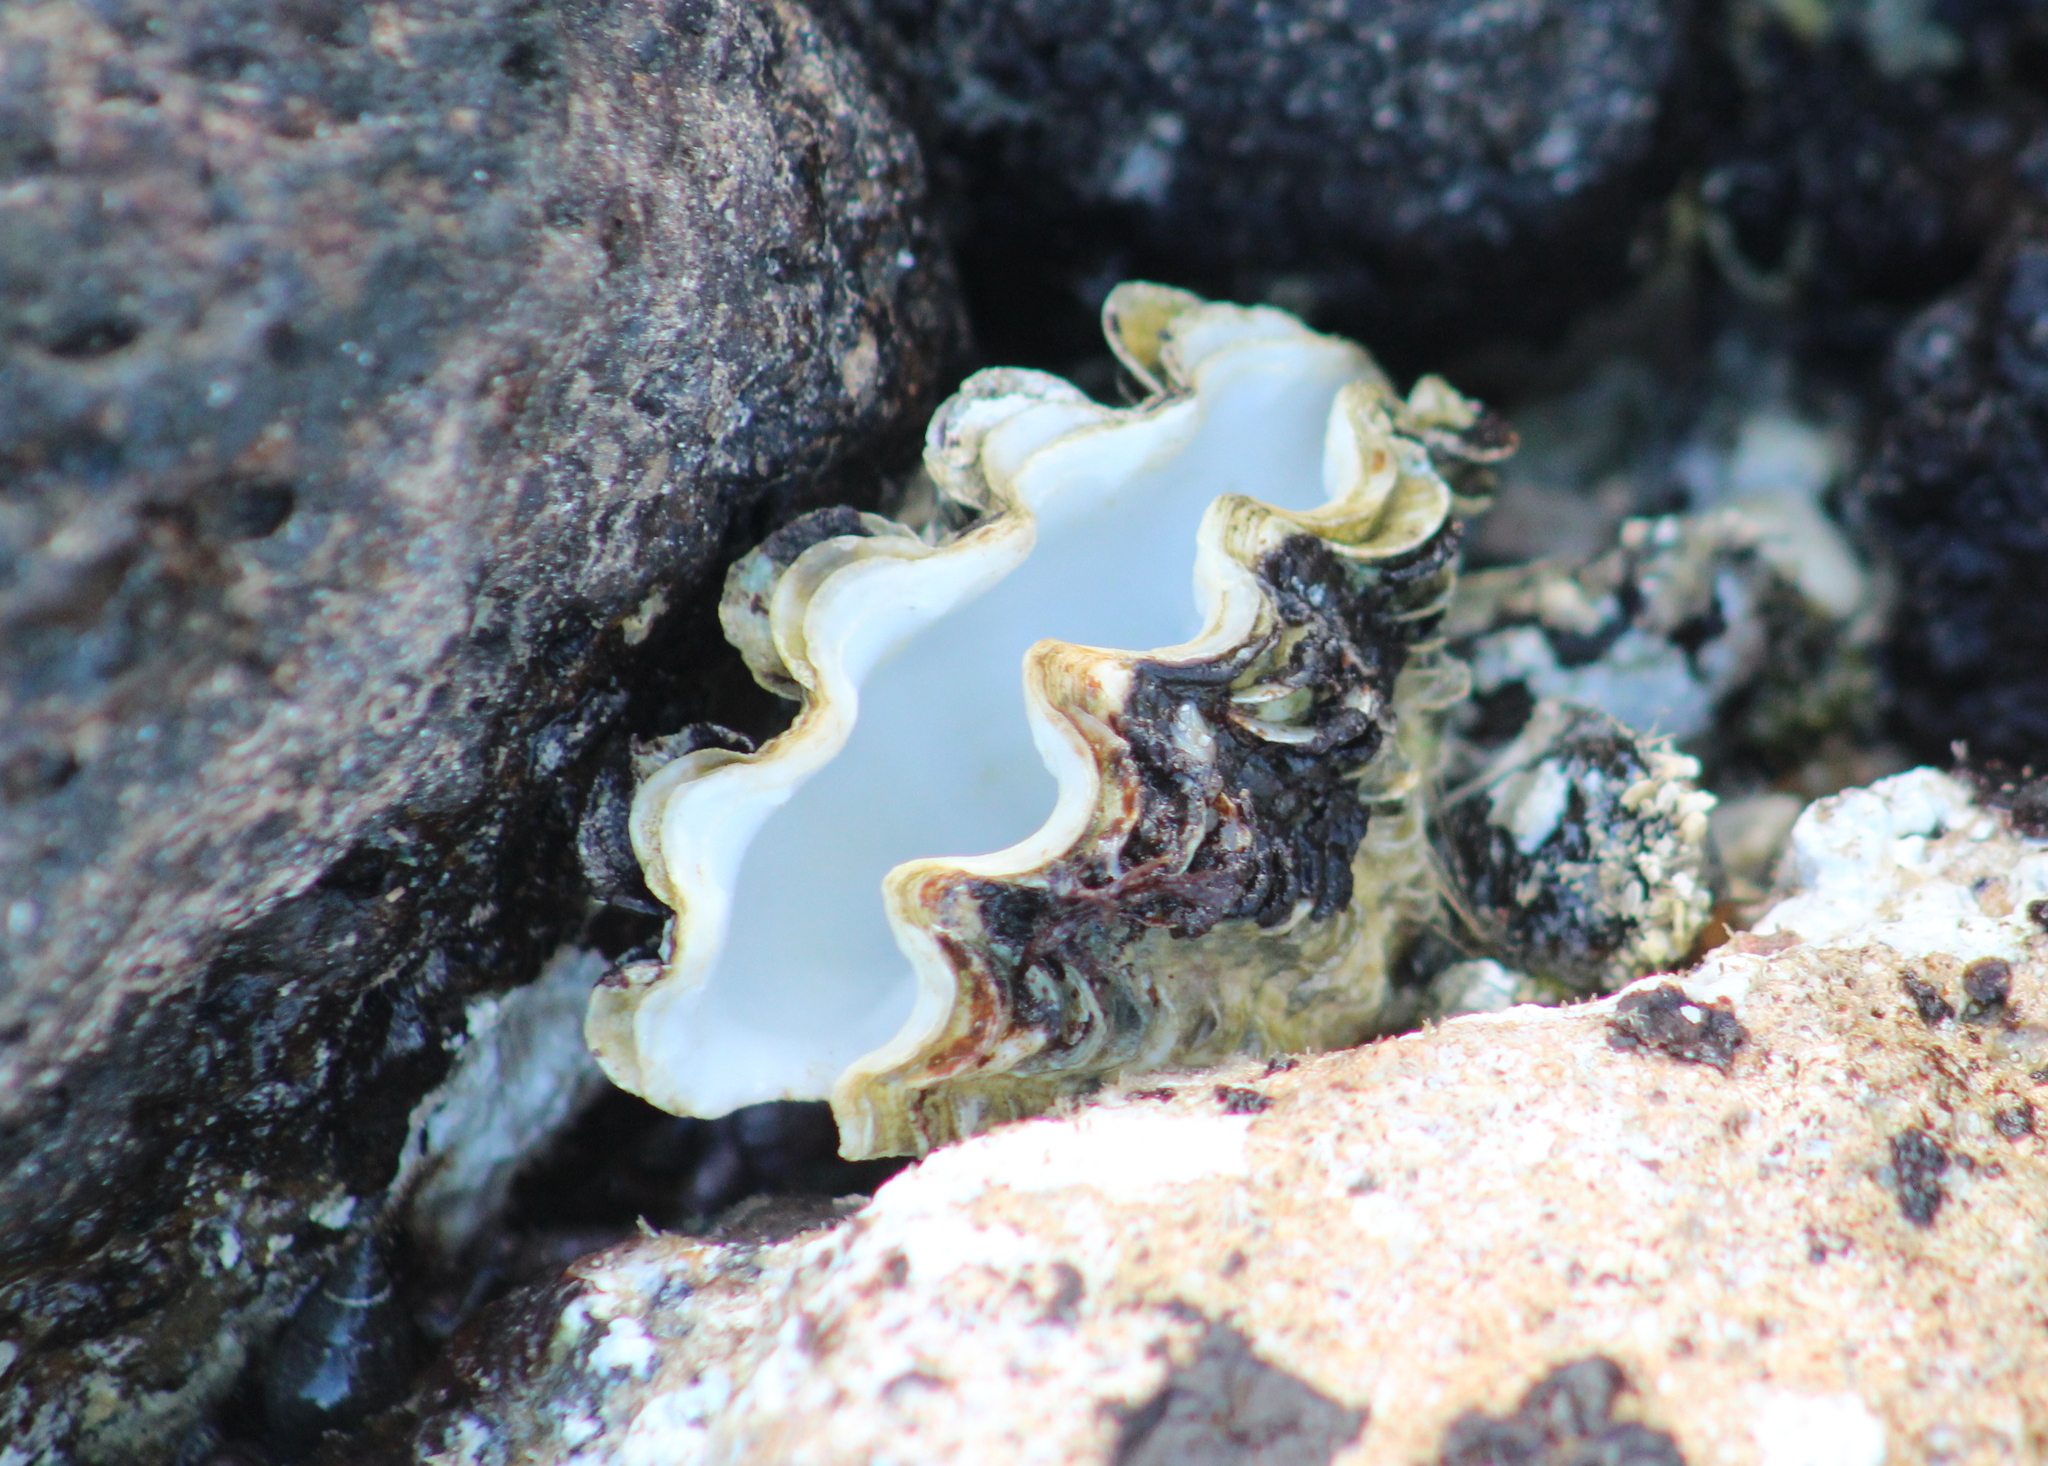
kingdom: Animalia
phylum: Mollusca
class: Bivalvia
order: Cardiida
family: Cardiidae
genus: Tridacna
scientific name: Tridacna maxima
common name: Small giant clam
